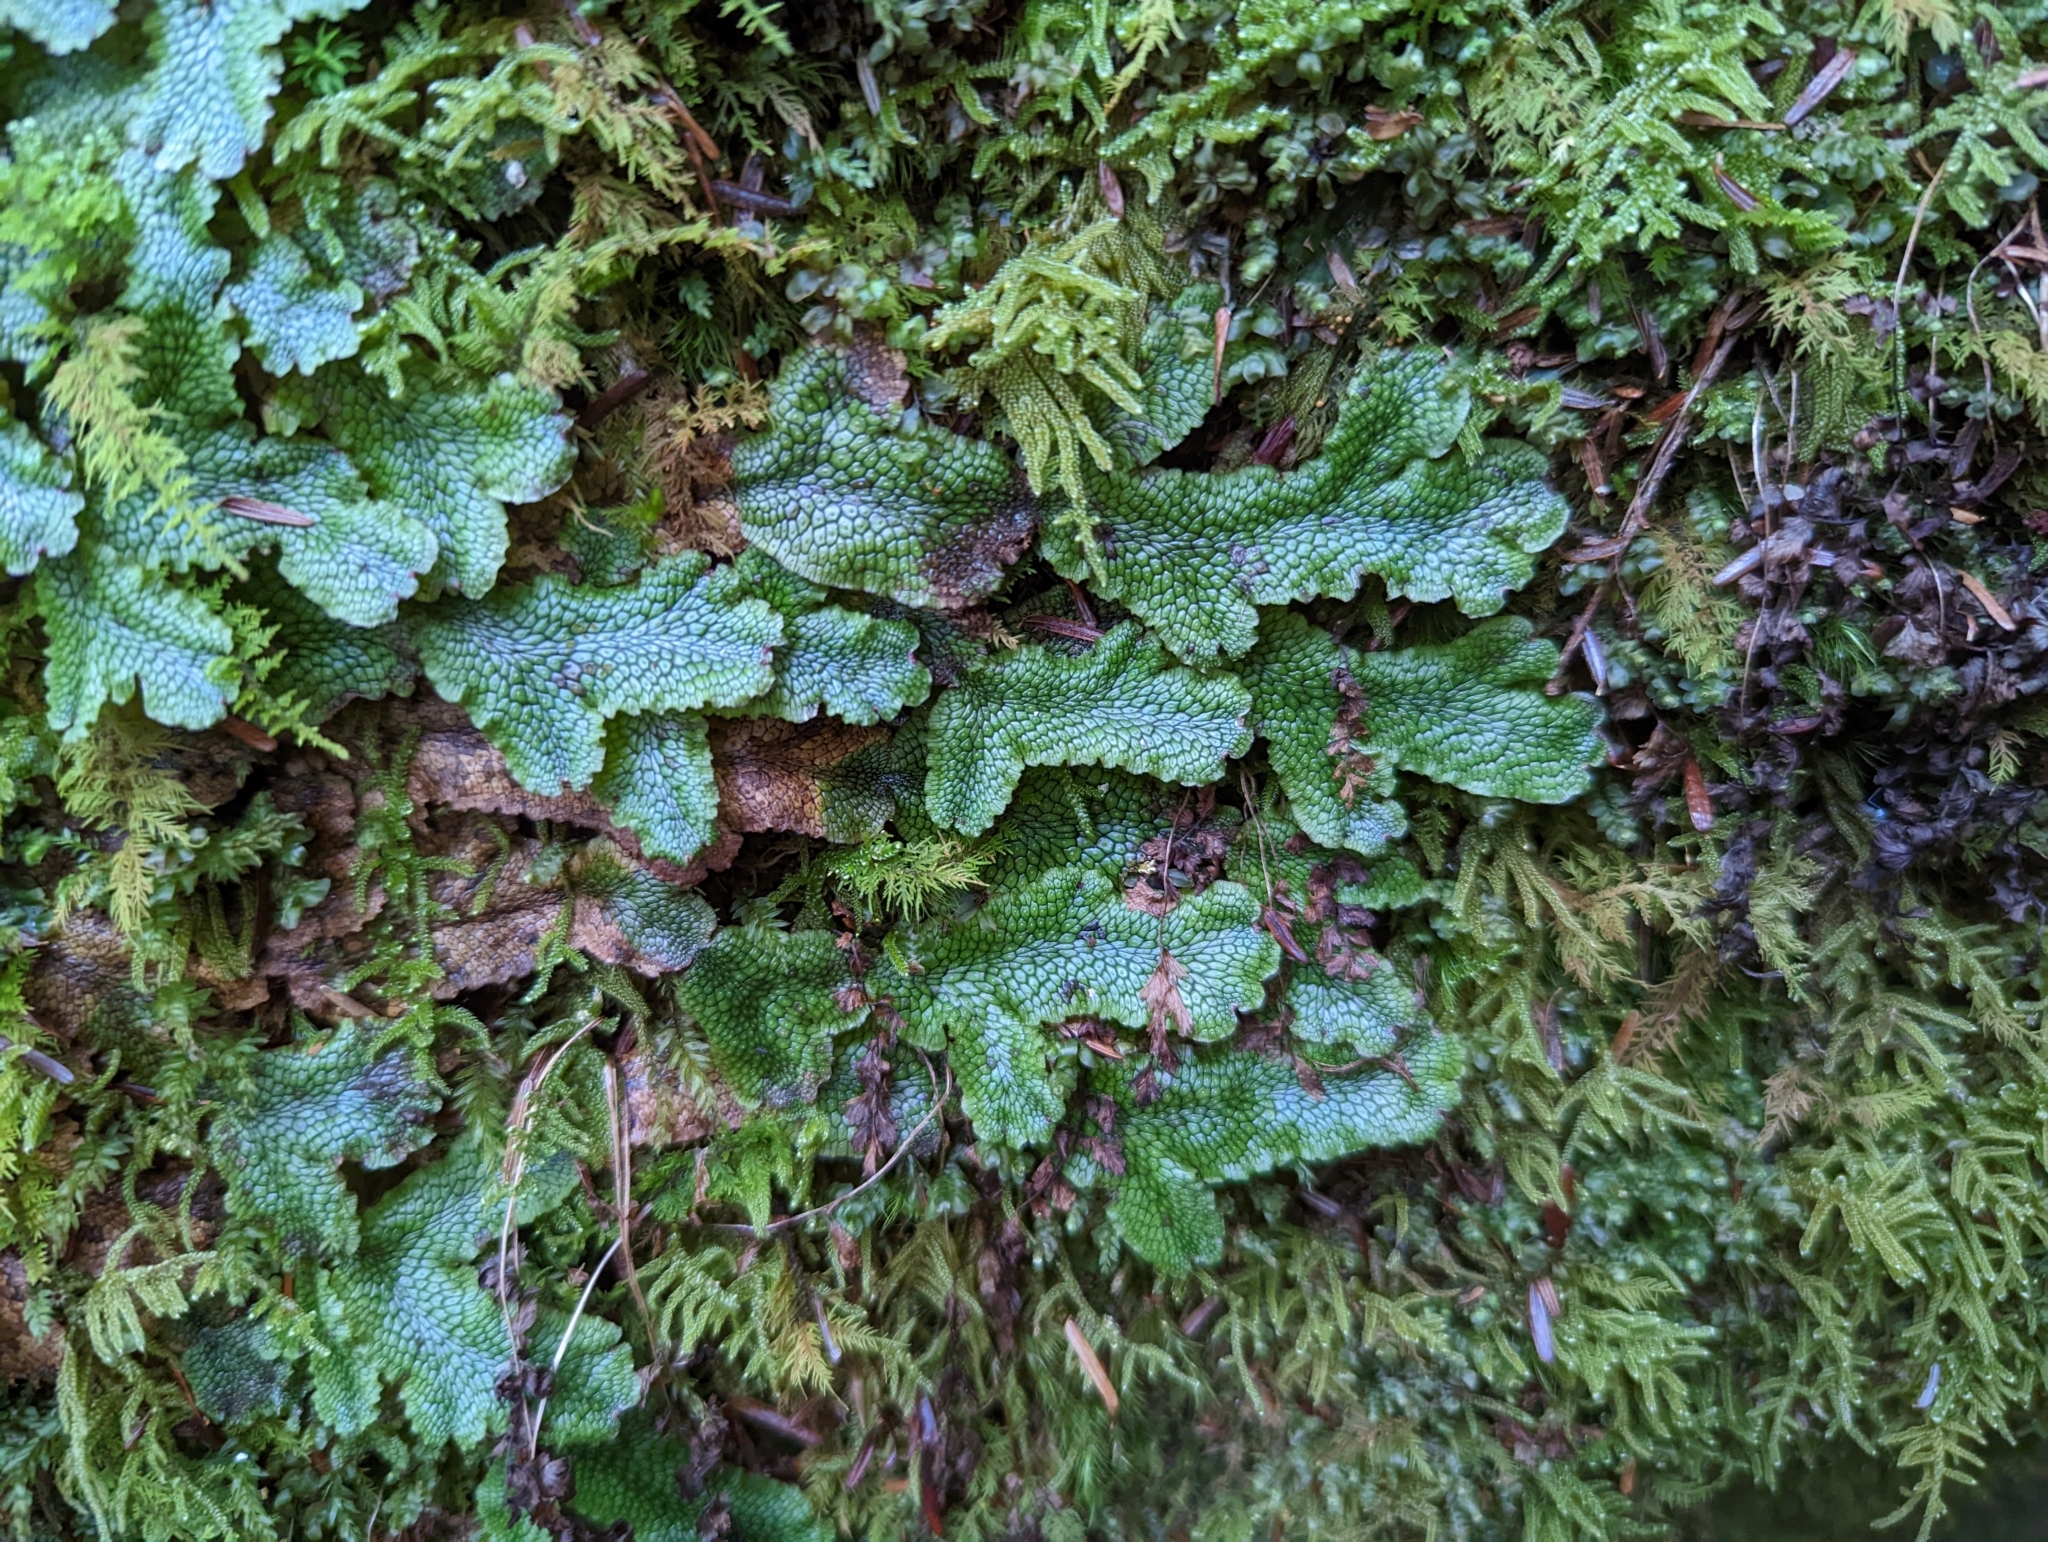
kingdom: Plantae
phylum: Marchantiophyta
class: Marchantiopsida
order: Marchantiales
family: Conocephalaceae
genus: Conocephalum
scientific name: Conocephalum salebrosum
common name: Cat-tongue liverwort
